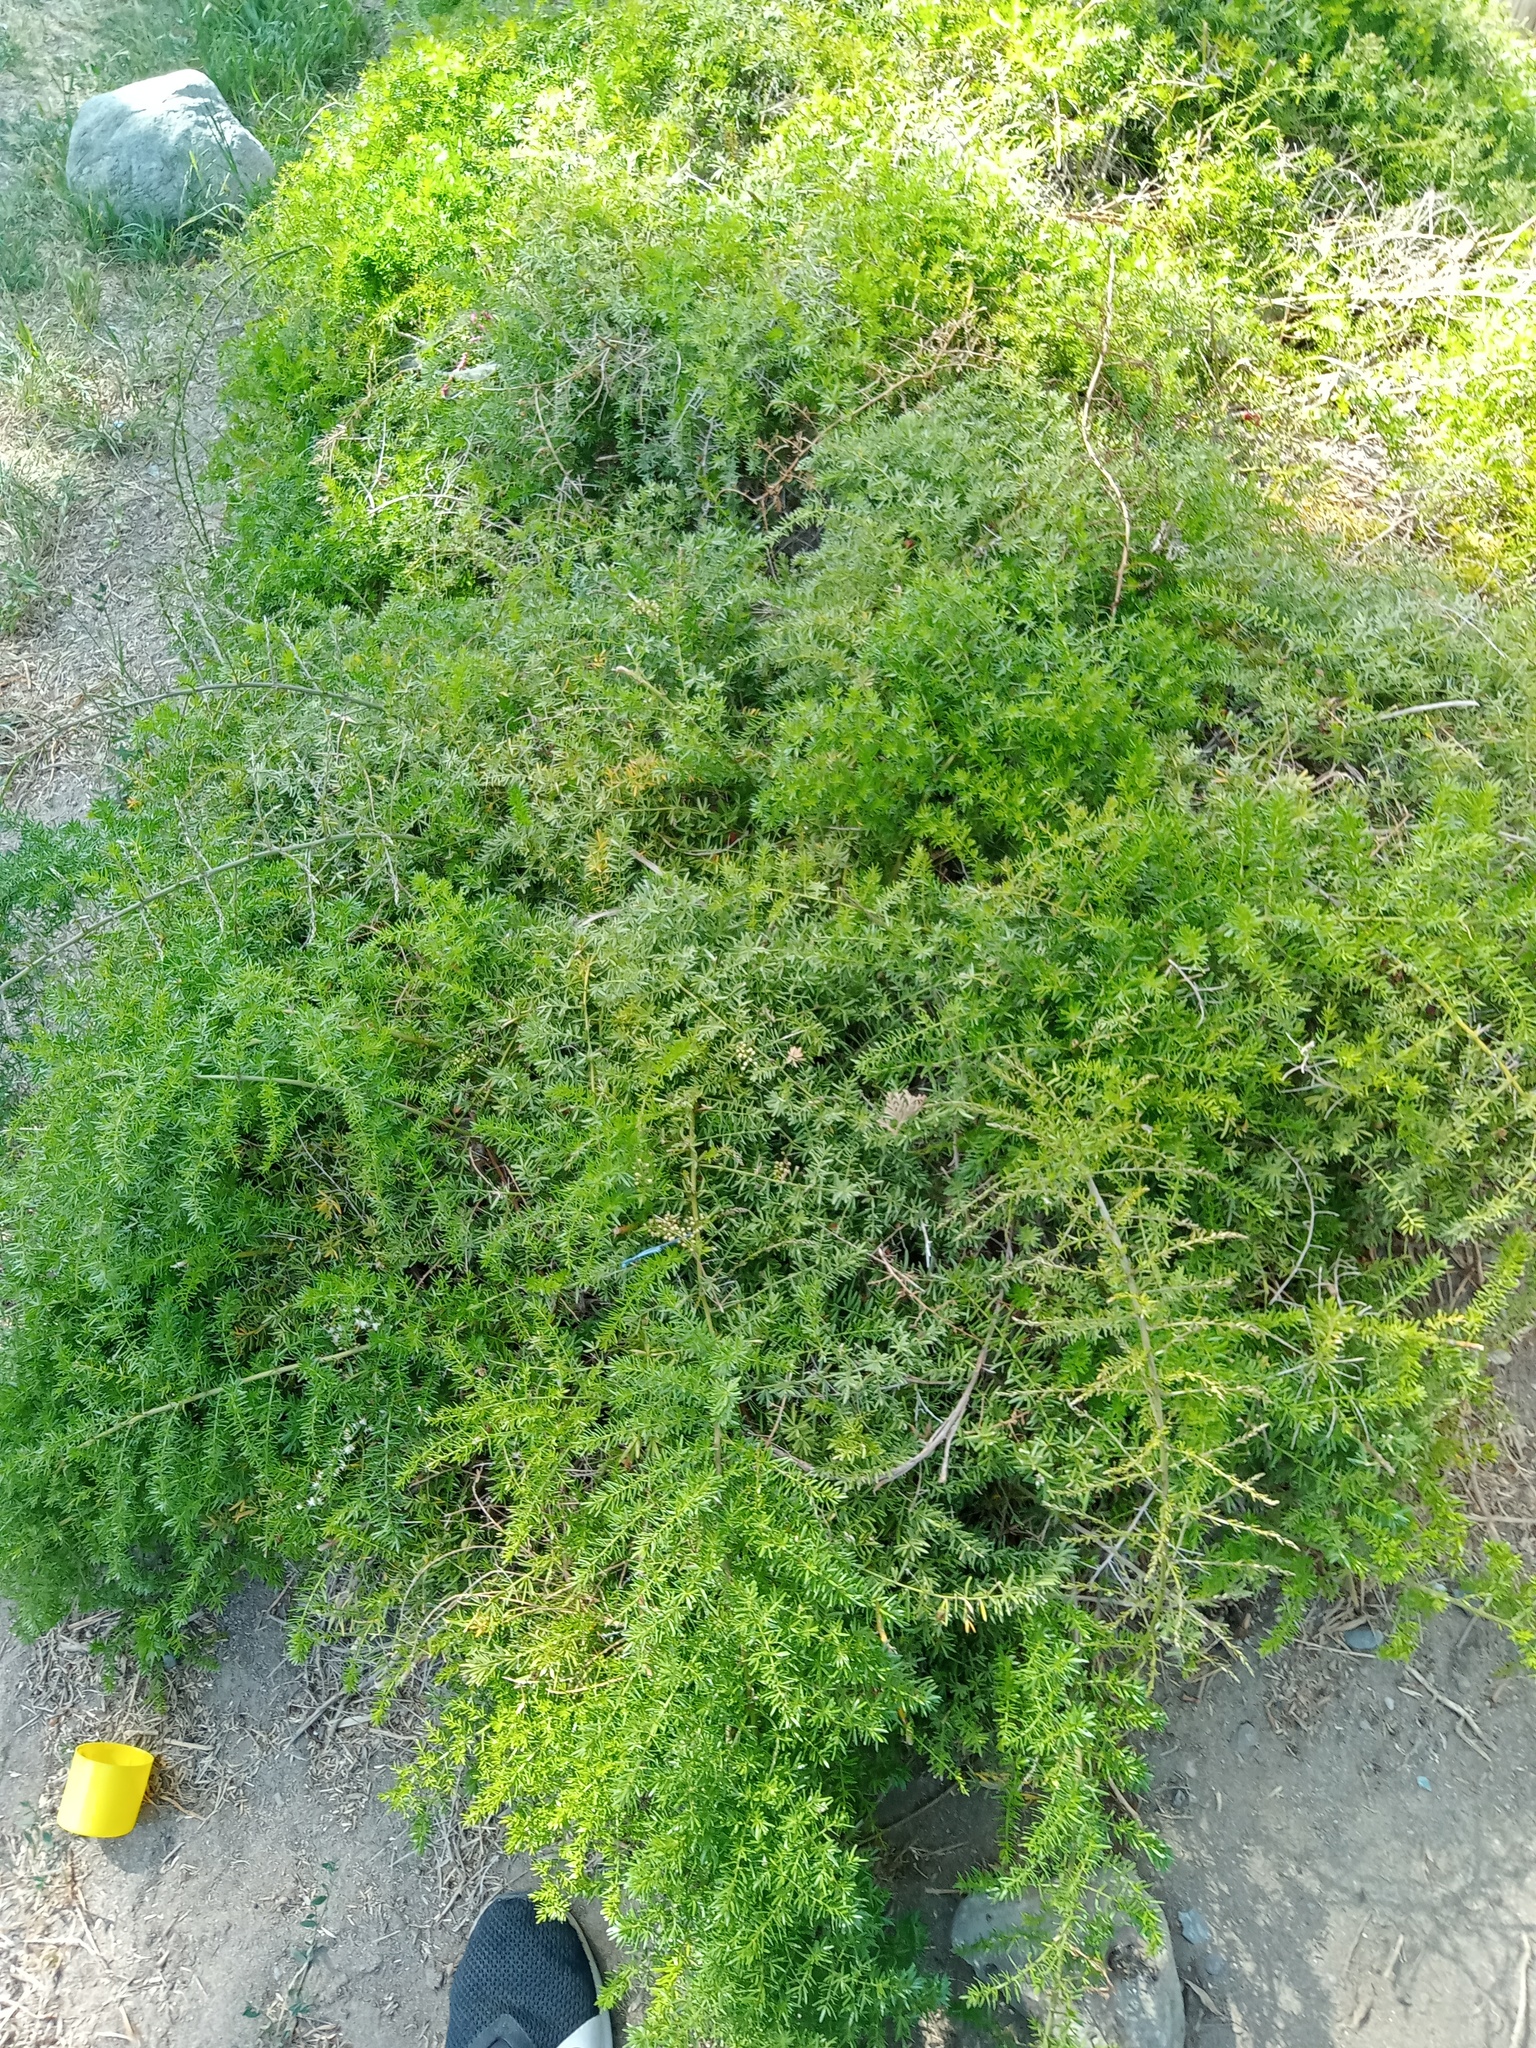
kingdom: Plantae
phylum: Tracheophyta
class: Liliopsida
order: Asparagales
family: Asparagaceae
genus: Asparagus
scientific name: Asparagus aethiopicus
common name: Sprenger's asparagus fern
